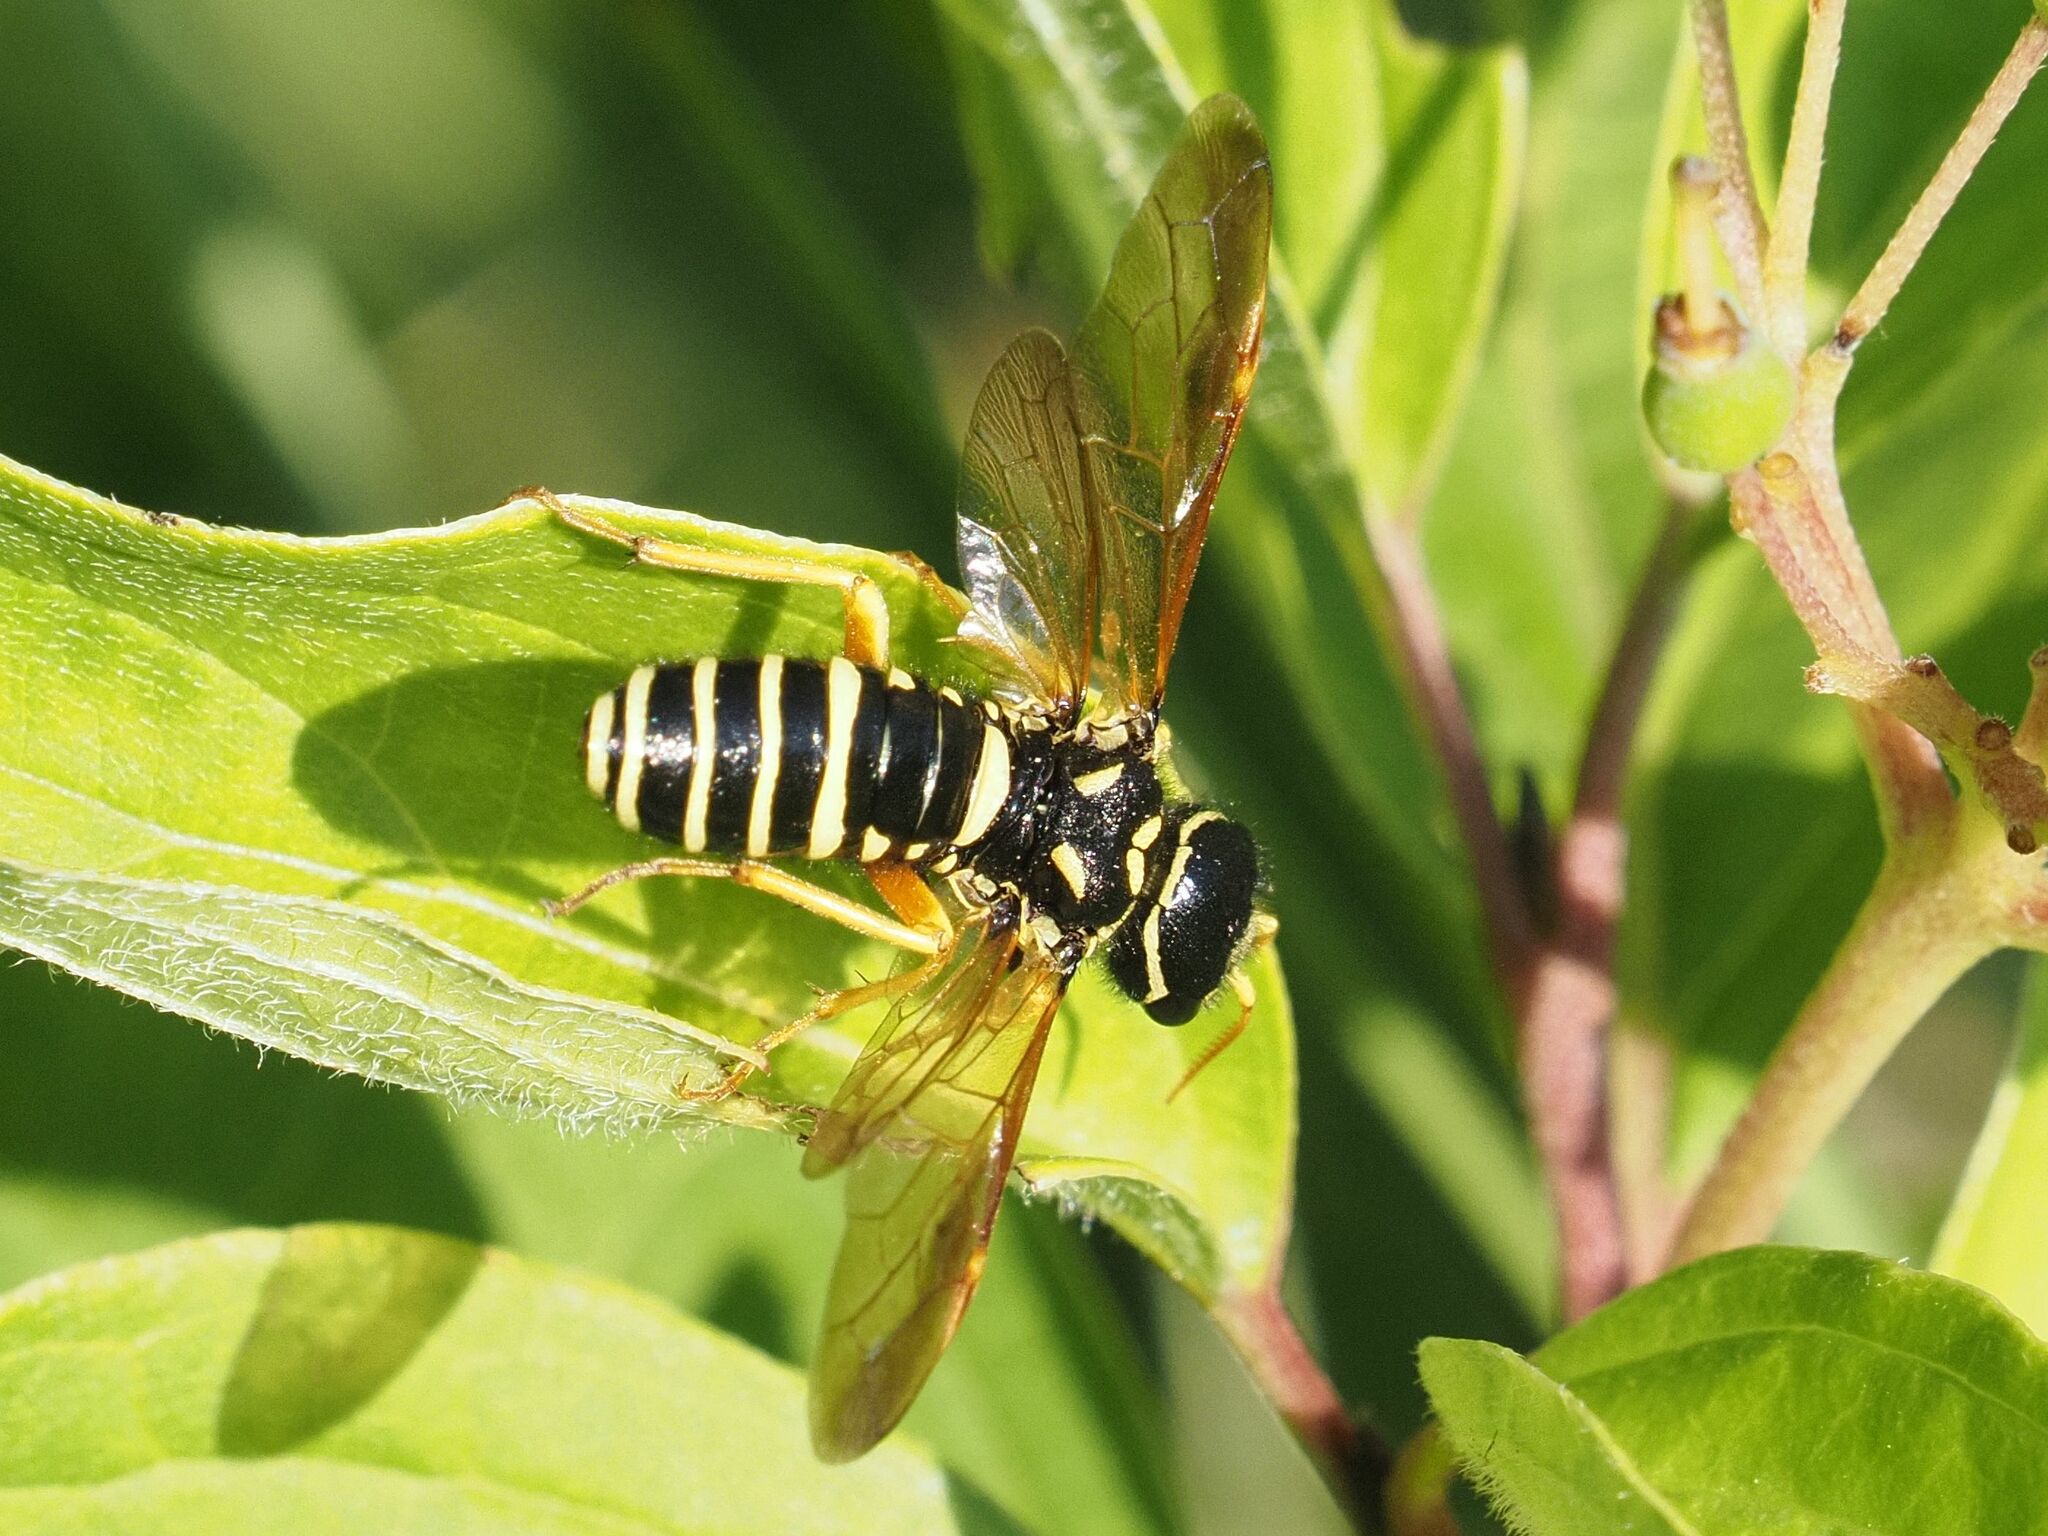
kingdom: Animalia
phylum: Arthropoda
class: Insecta
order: Hymenoptera
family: Megalodontesidae
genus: Megalodontes
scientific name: Megalodontes panzeri
